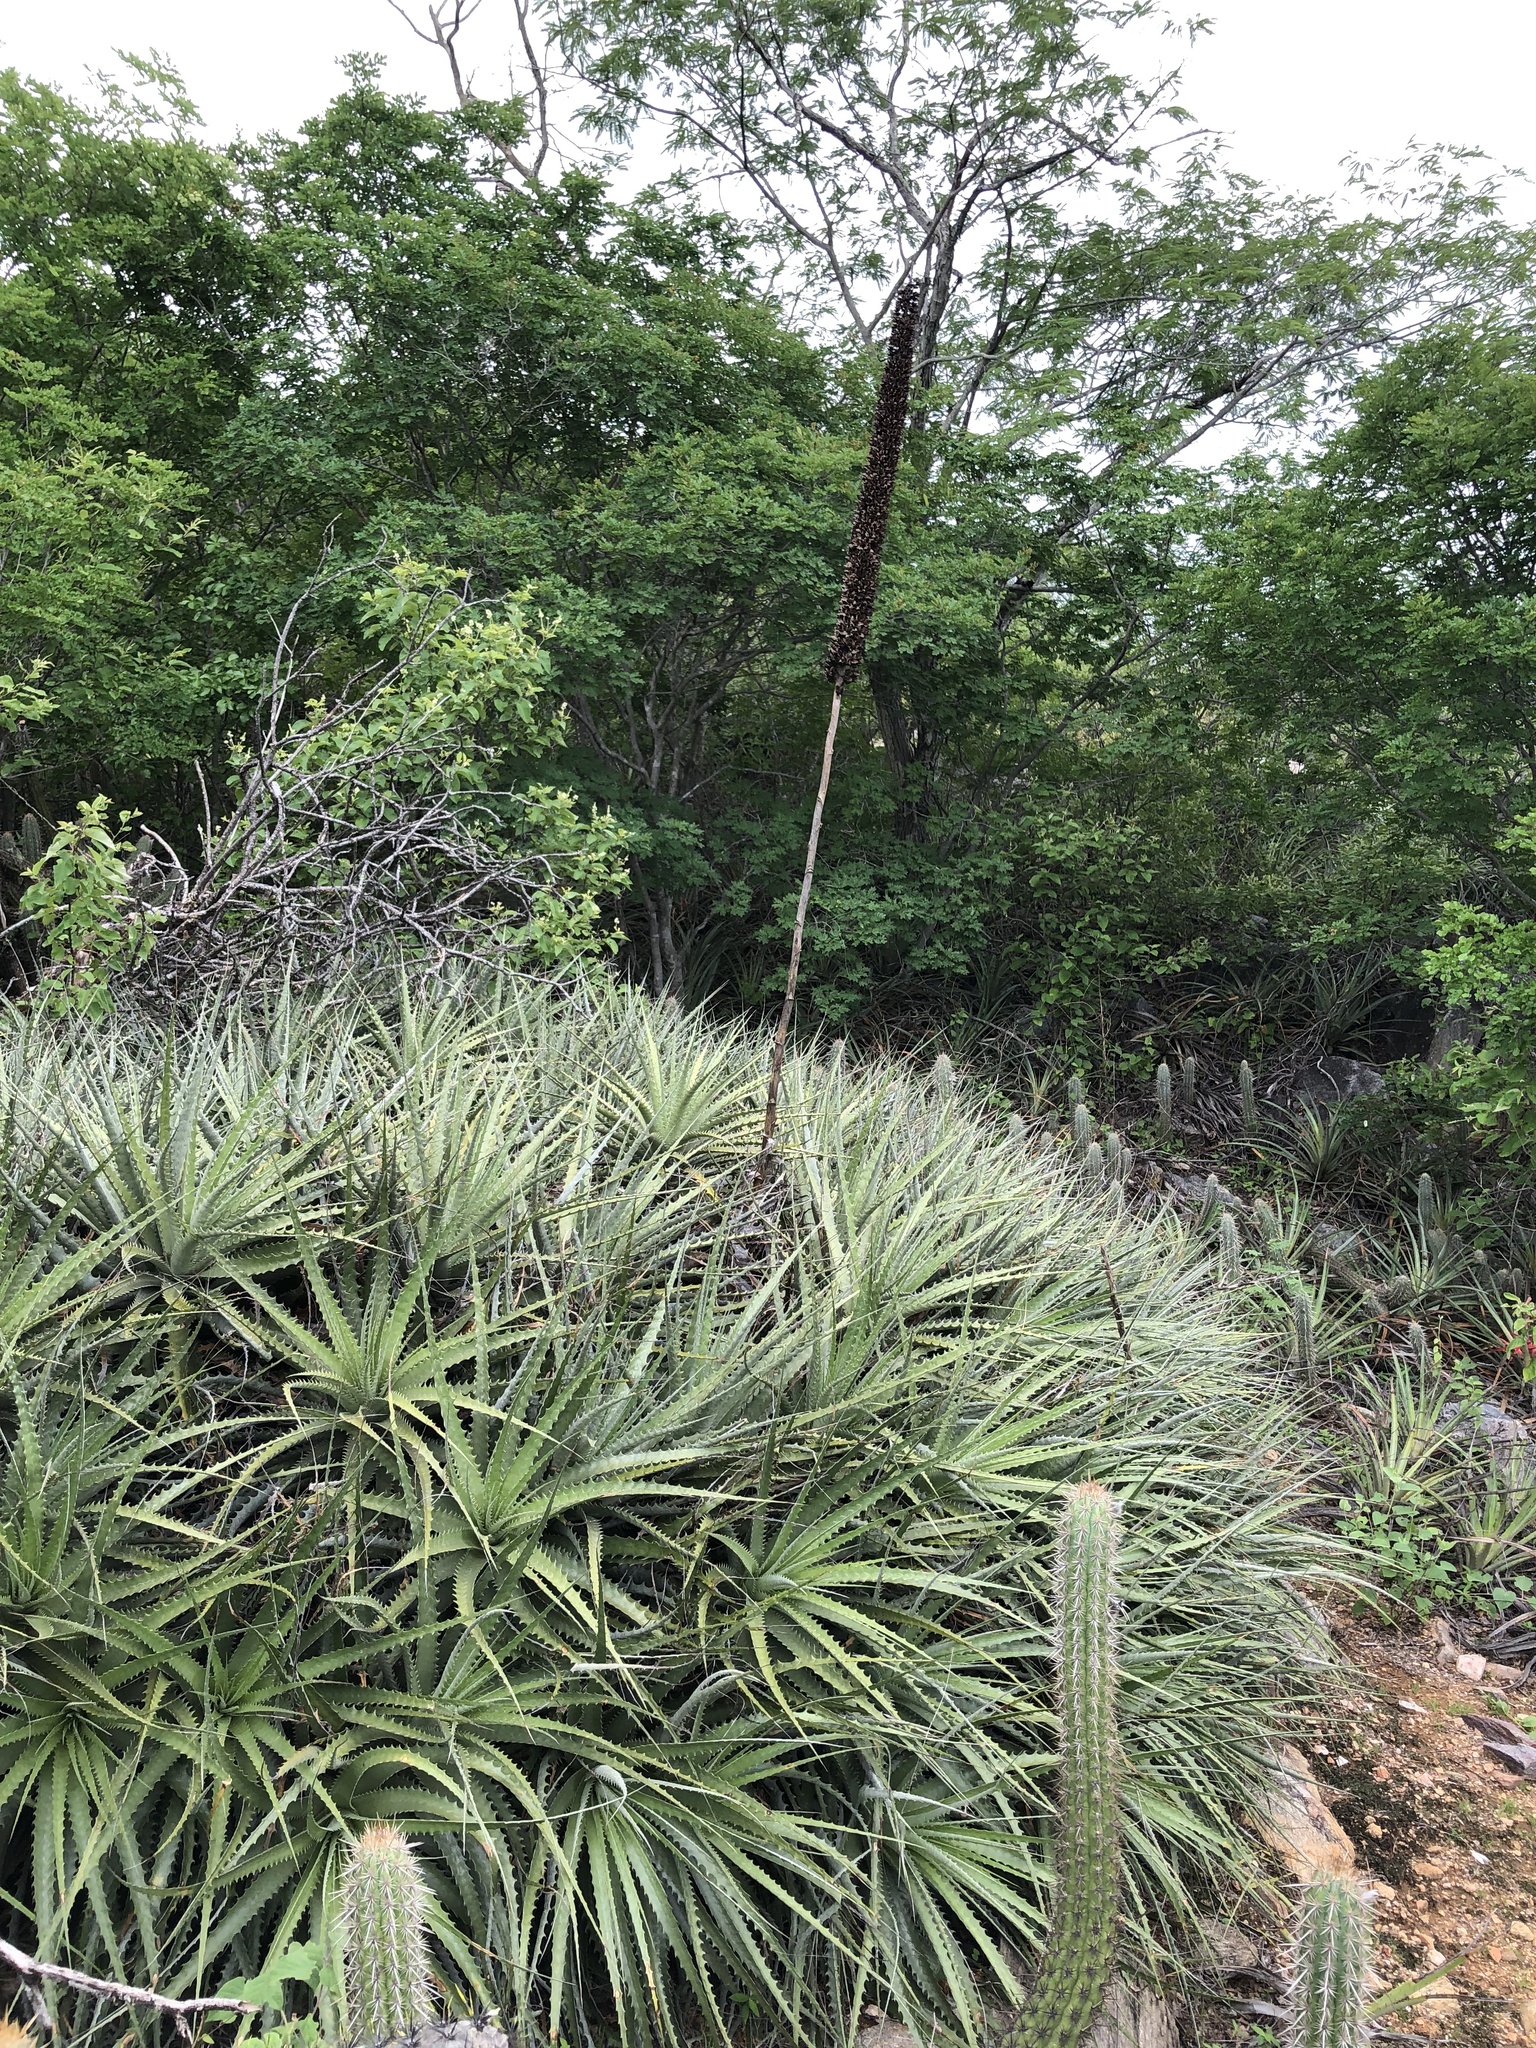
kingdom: Plantae
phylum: Tracheophyta
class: Liliopsida
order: Poales
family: Bromeliaceae
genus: Encholirium
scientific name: Encholirium spectabile
